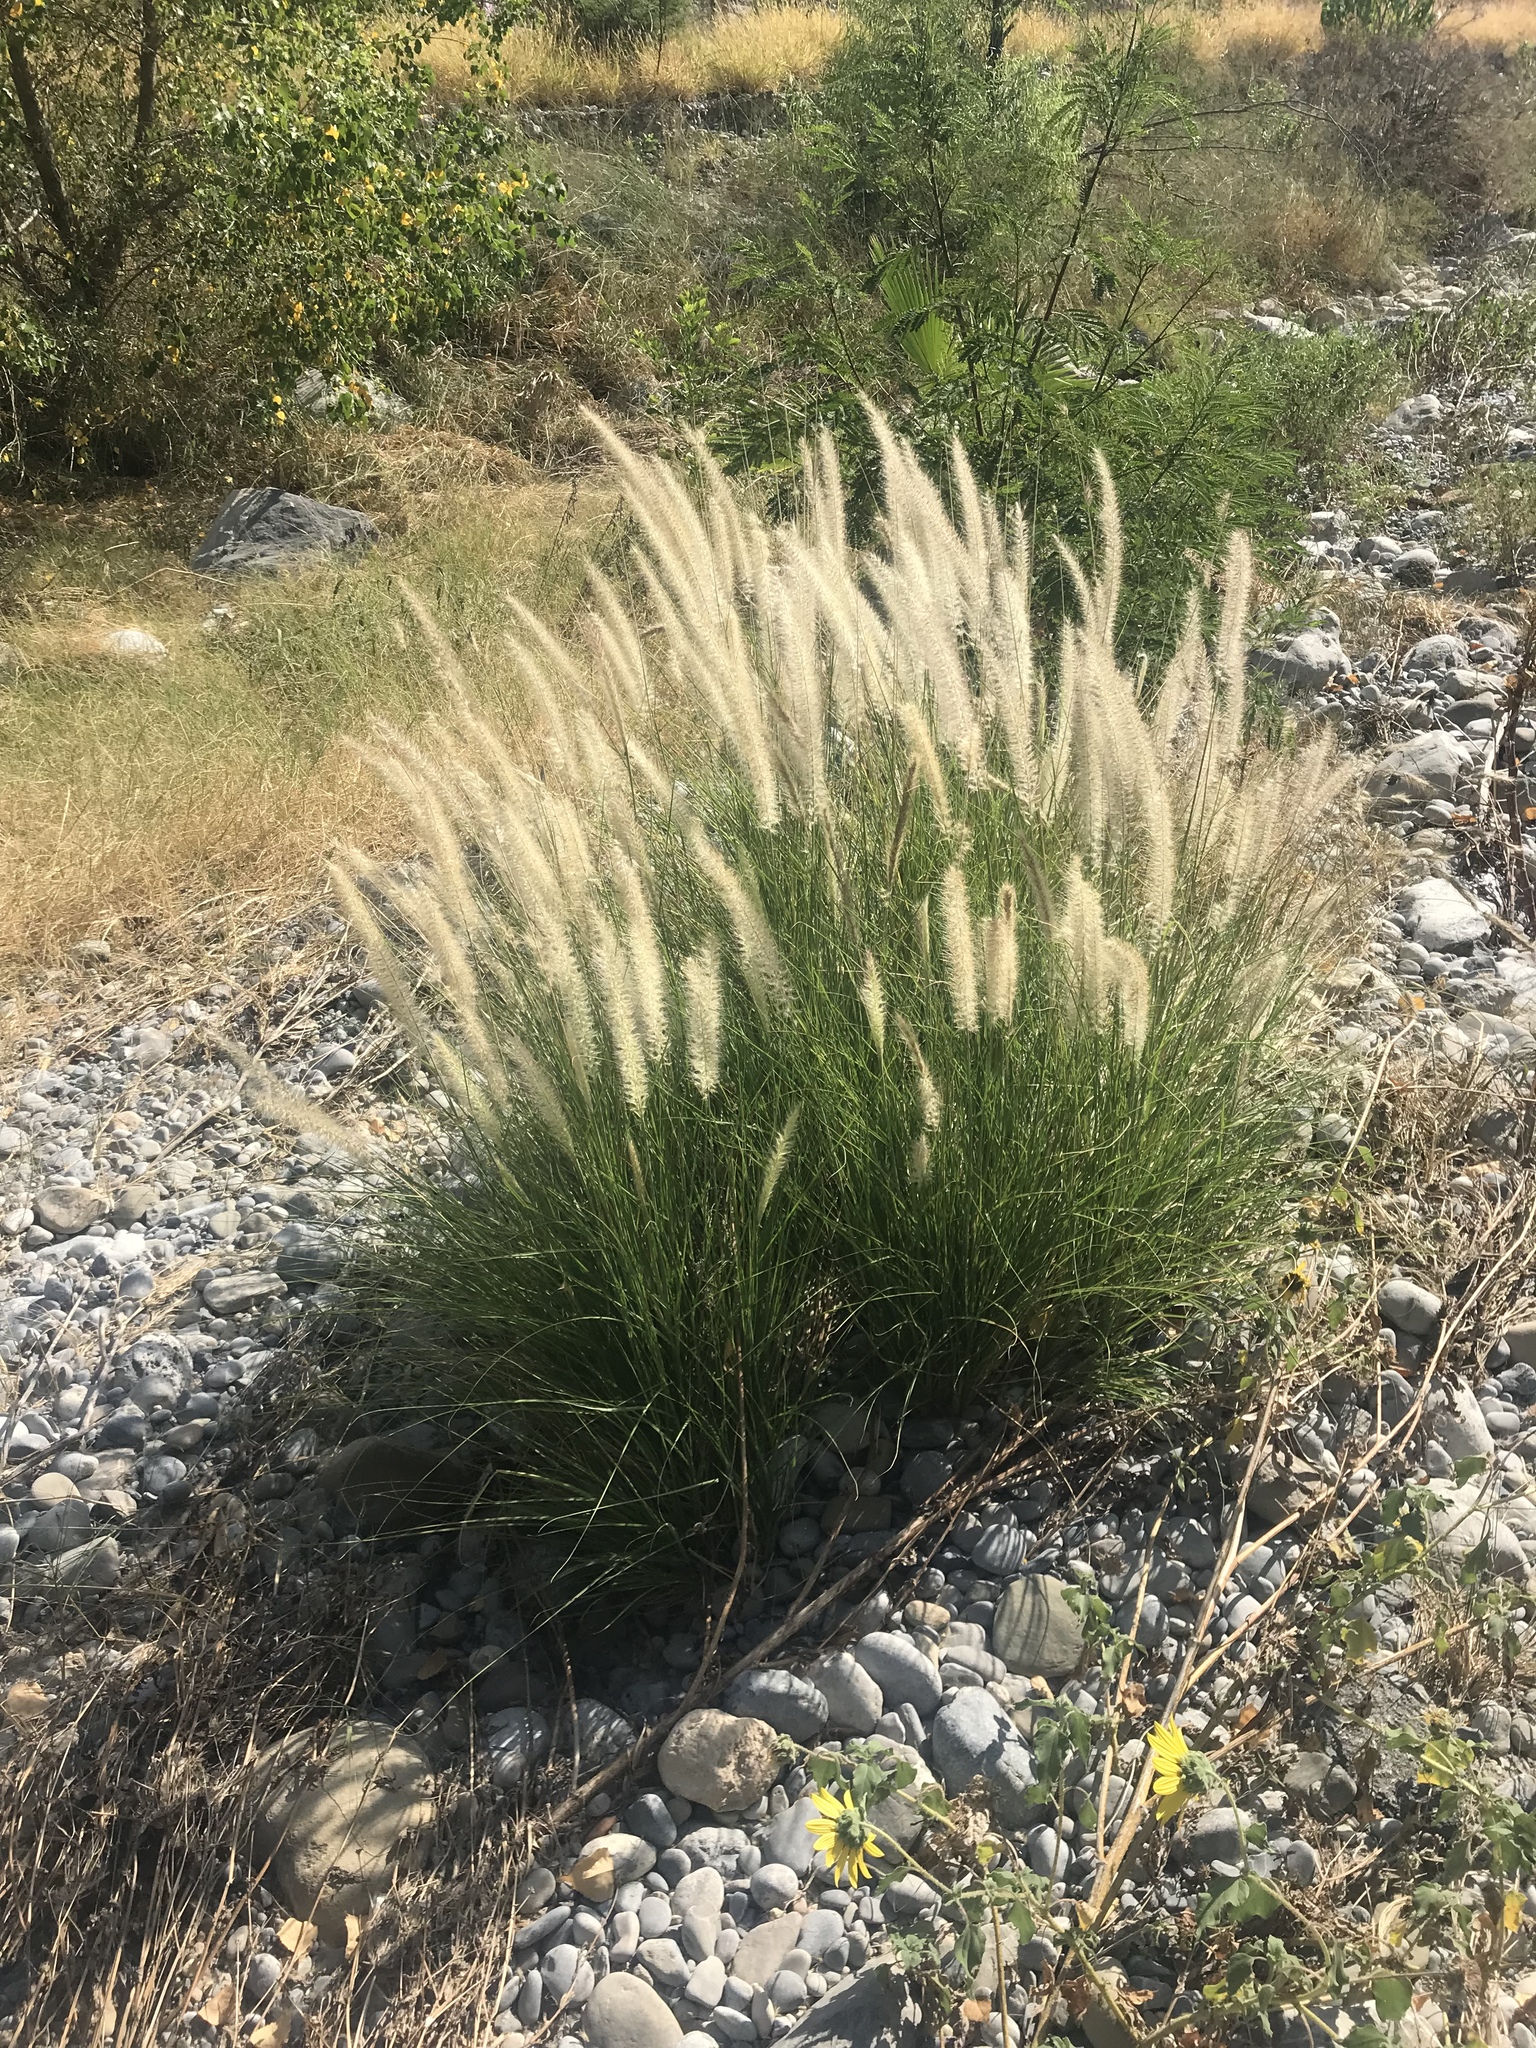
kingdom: Plantae
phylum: Tracheophyta
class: Liliopsida
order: Poales
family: Poaceae
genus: Cenchrus
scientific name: Cenchrus setaceus
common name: Crimson fountaingrass
